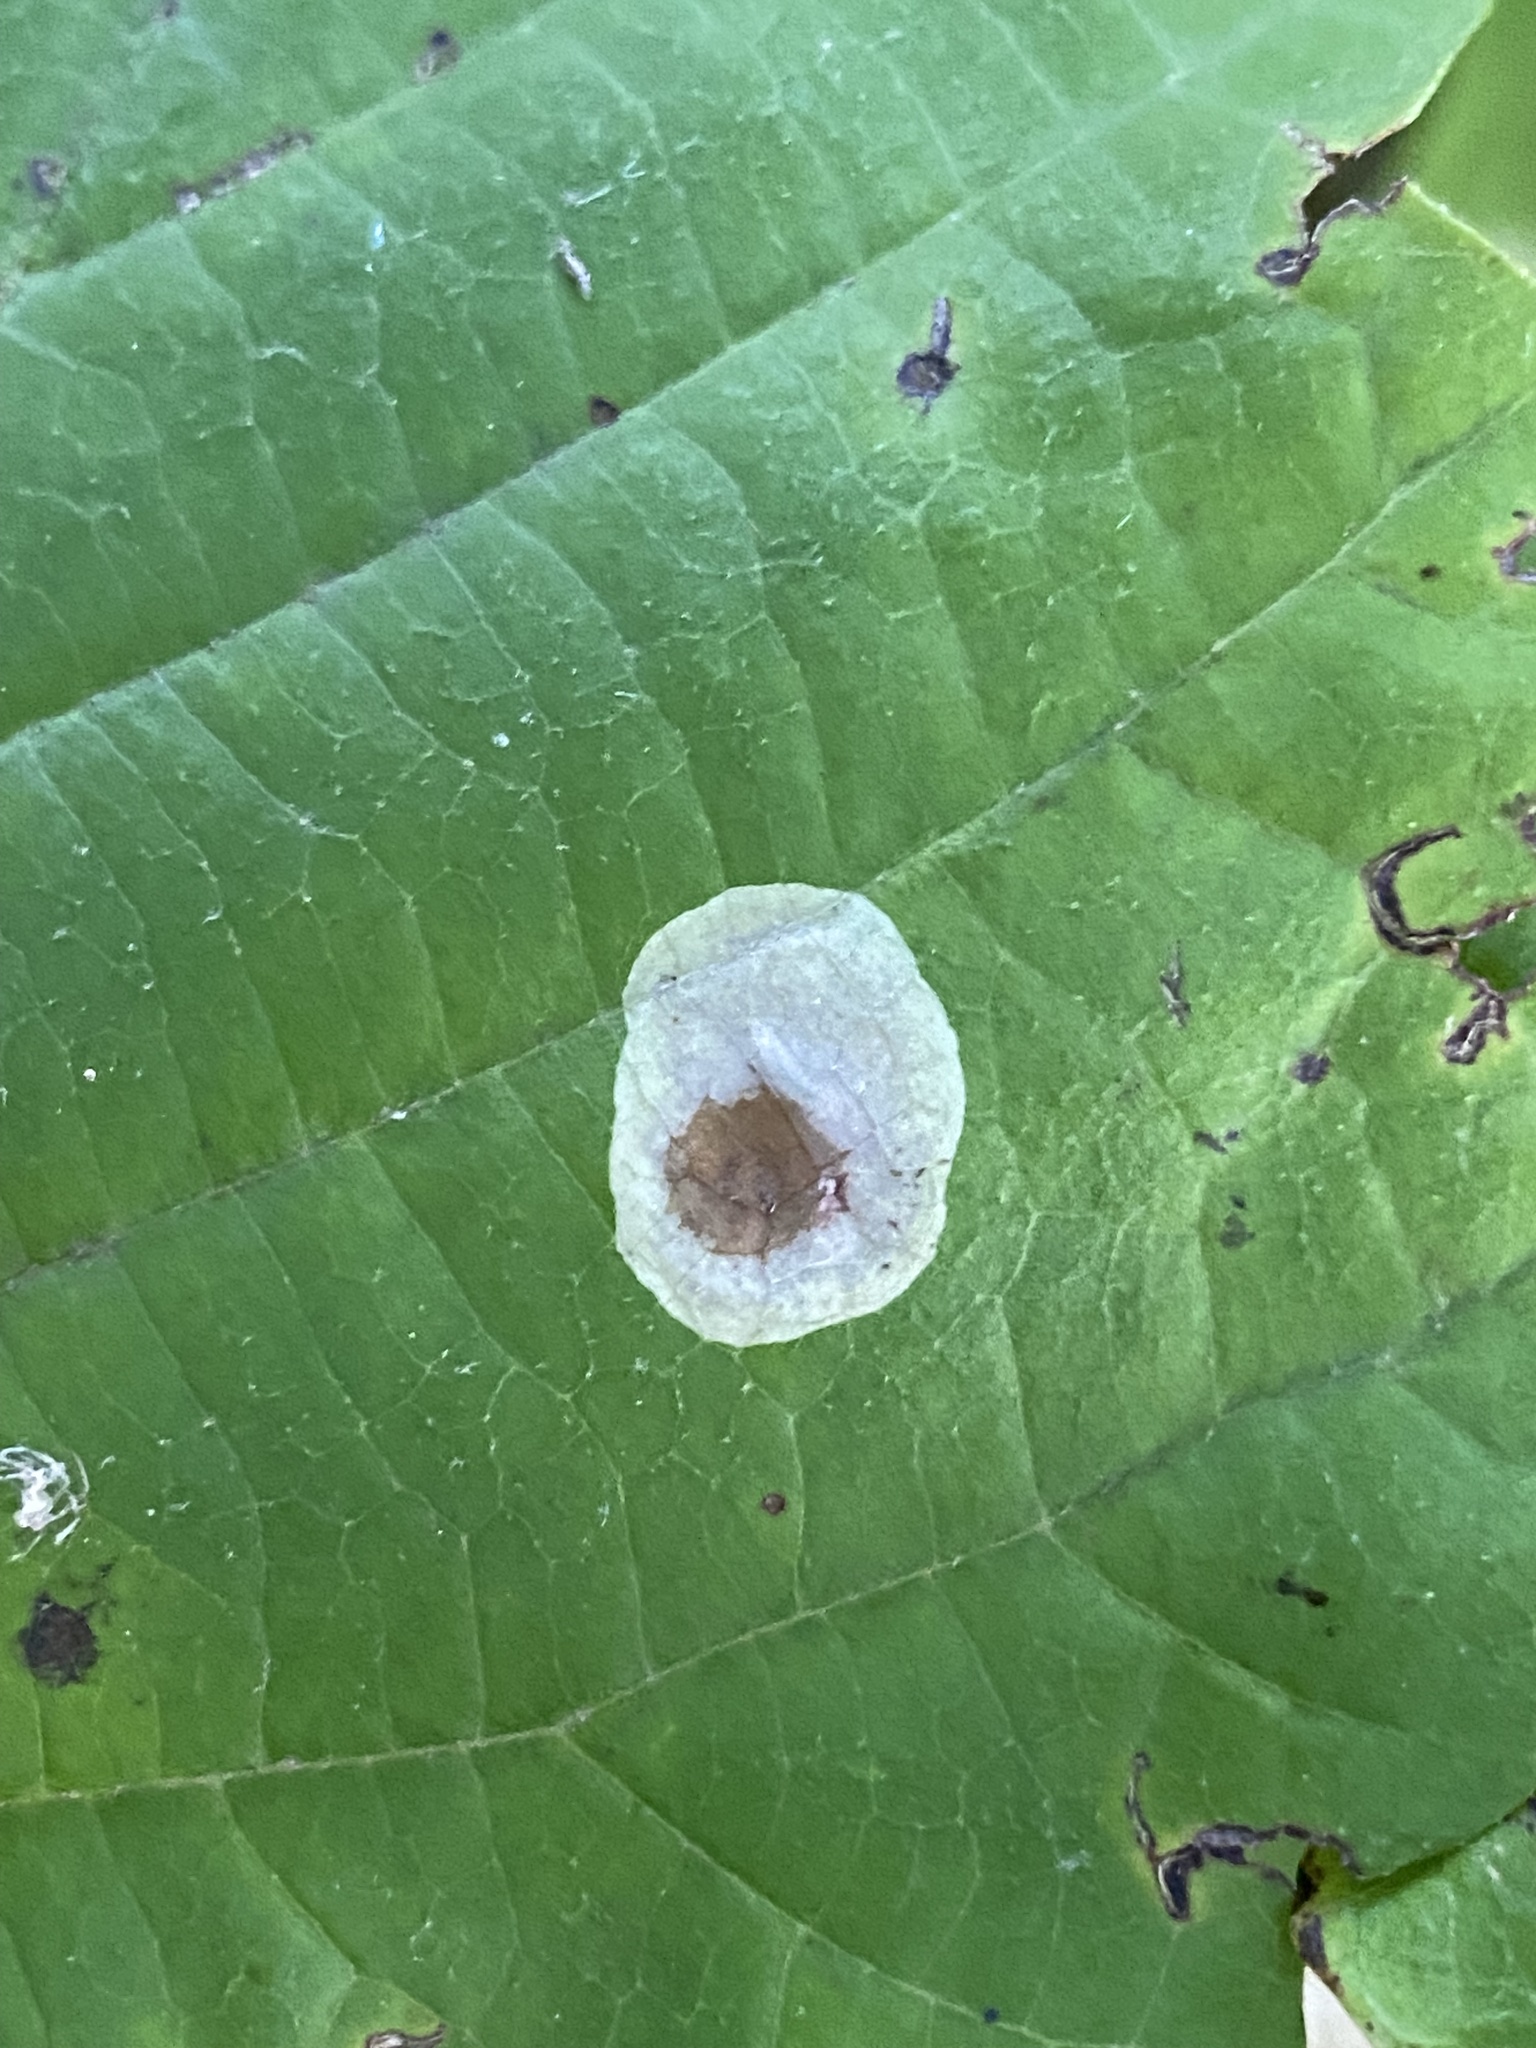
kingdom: Animalia
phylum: Arthropoda
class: Insecta
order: Lepidoptera
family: Gracillariidae
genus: Cameraria
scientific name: Cameraria hamameliella
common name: Witchhazel leafminer
